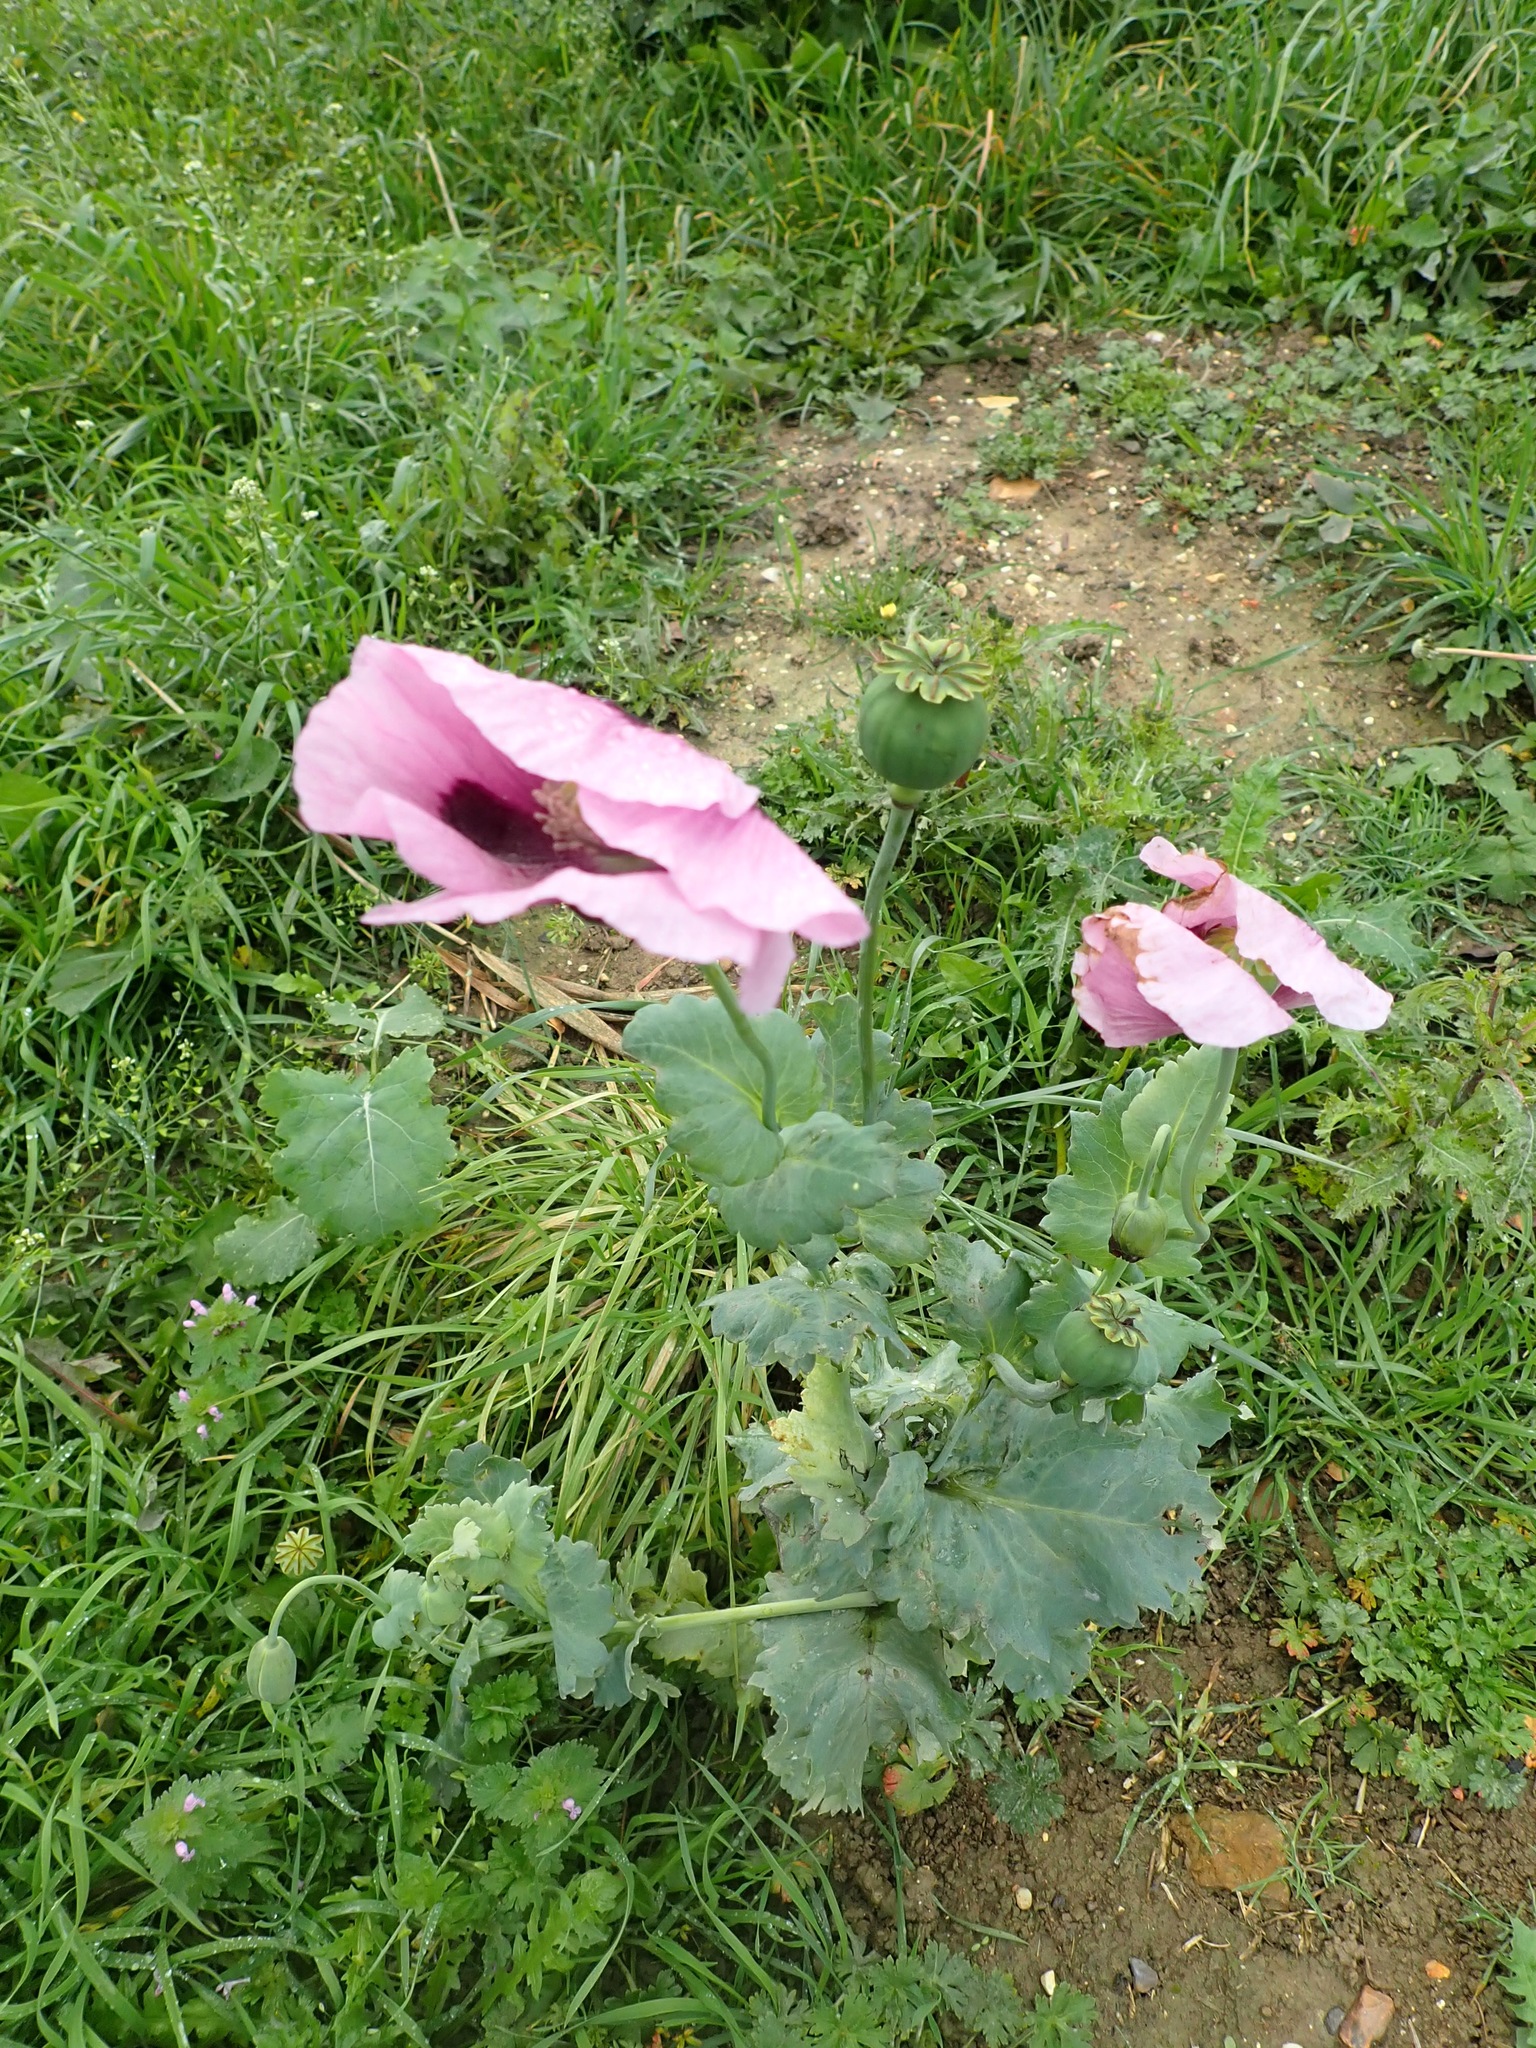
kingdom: Plantae
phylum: Tracheophyta
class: Magnoliopsida
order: Ranunculales
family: Papaveraceae
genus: Papaver
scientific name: Papaver somniferum
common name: Opium poppy
